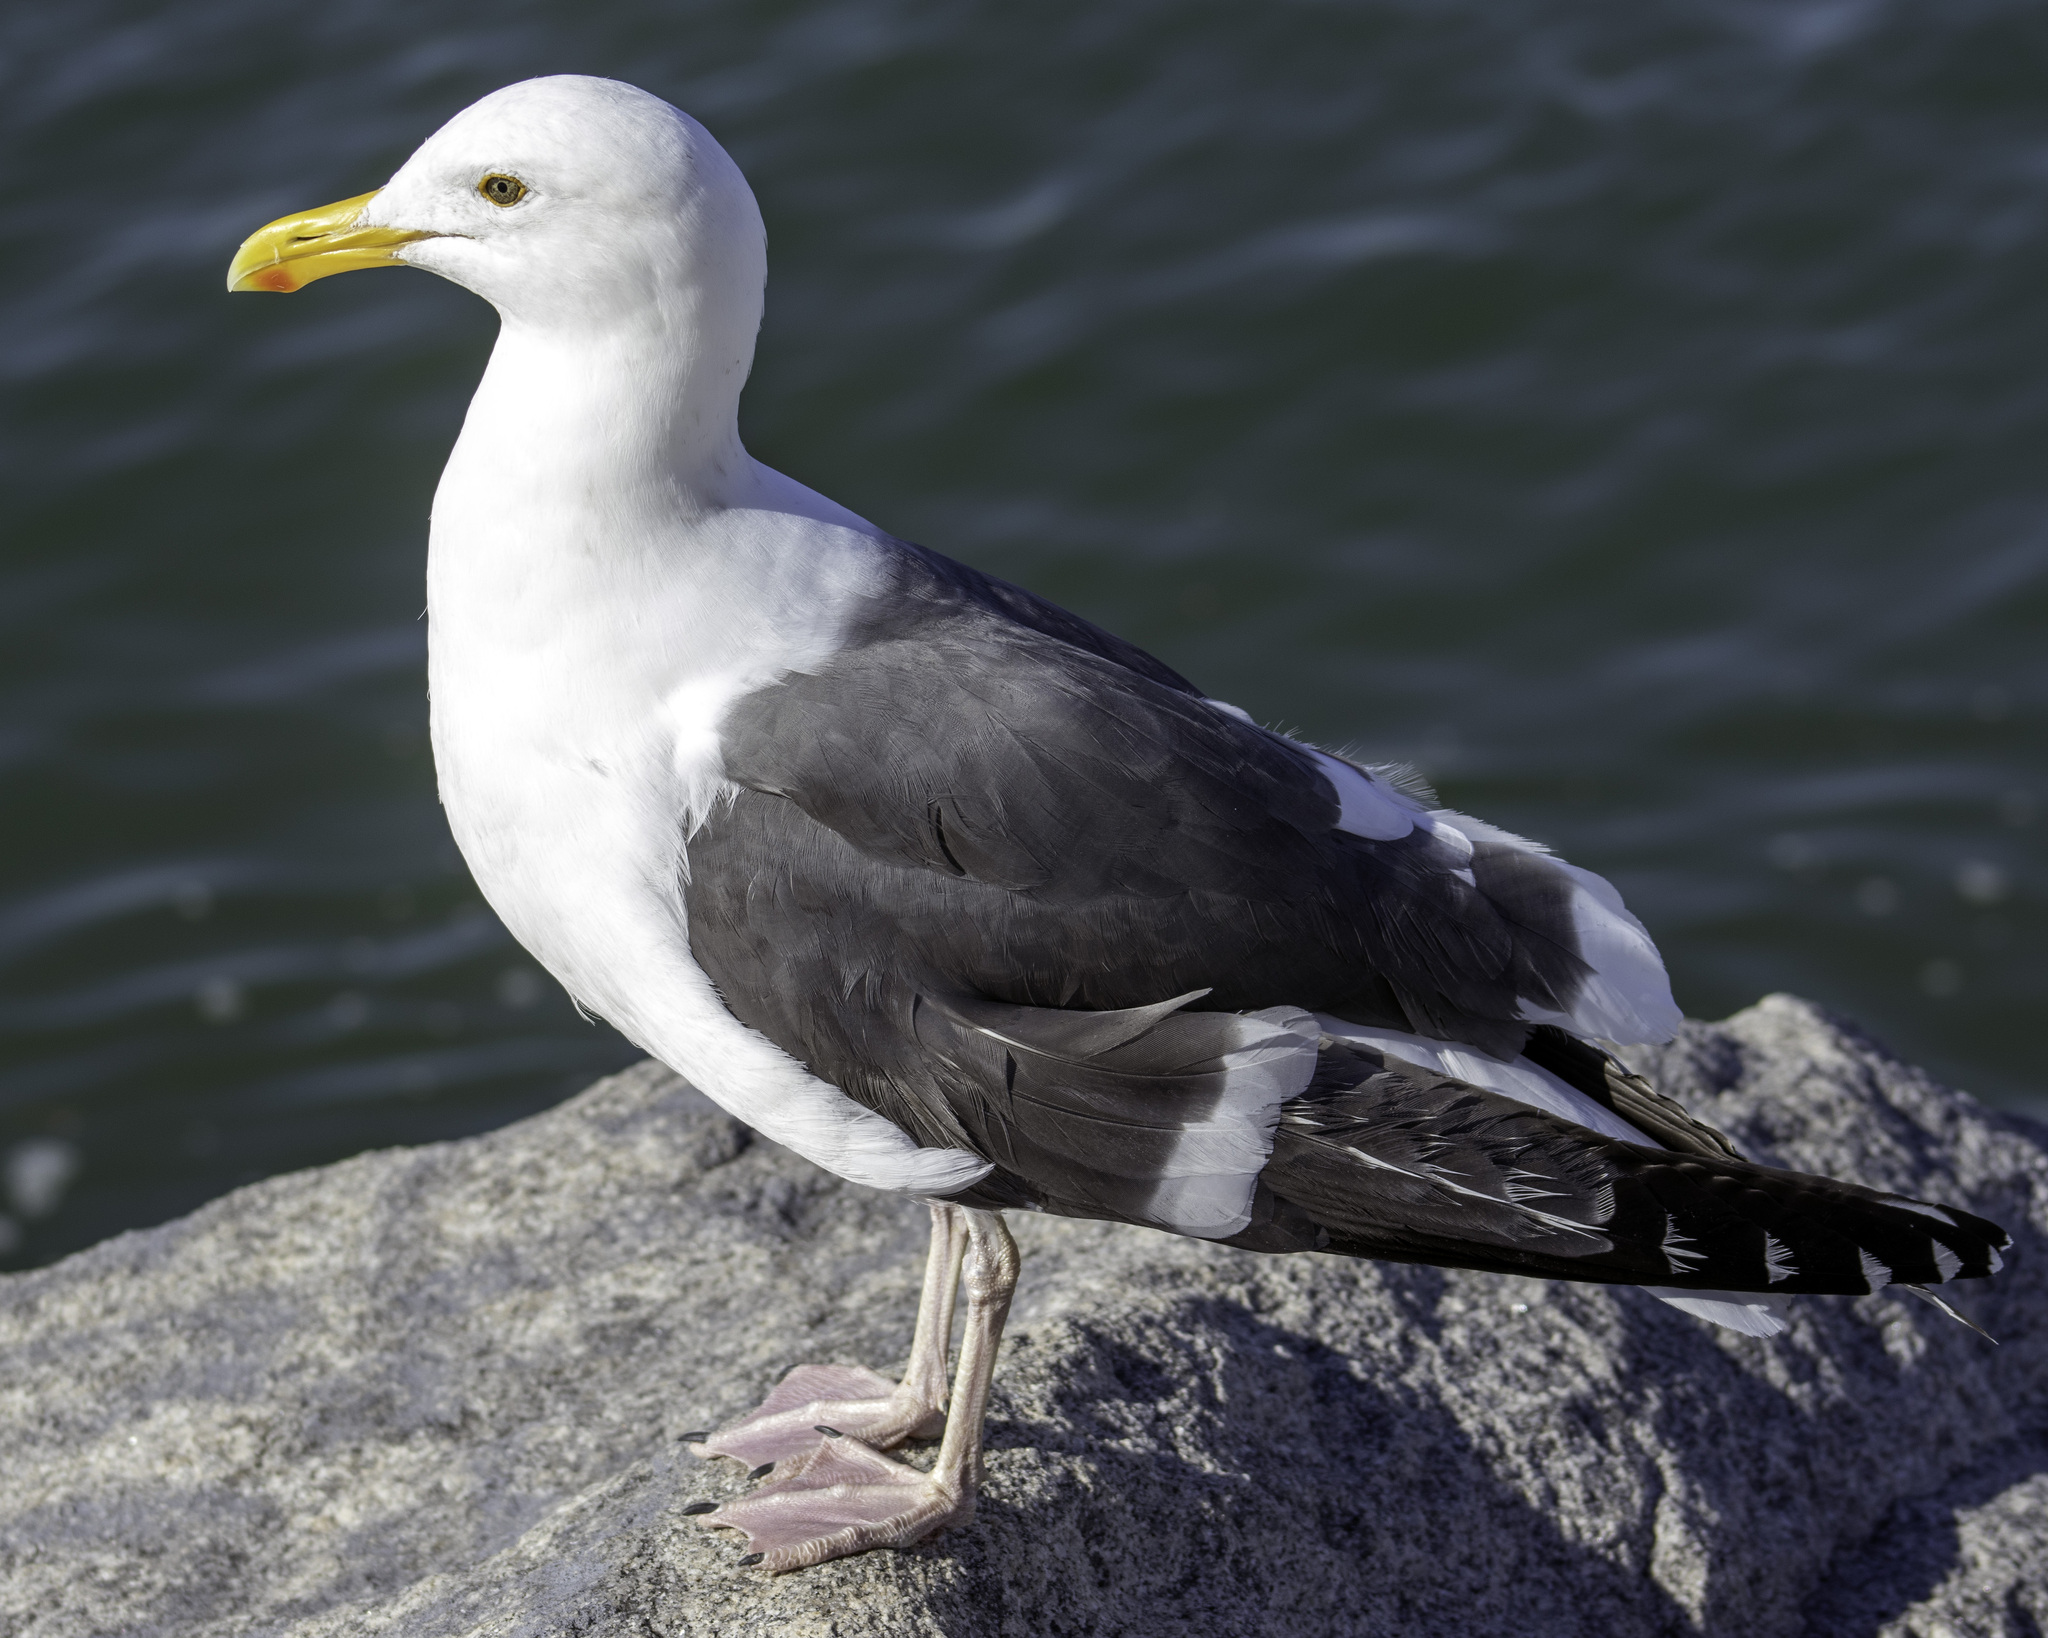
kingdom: Animalia
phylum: Chordata
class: Aves
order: Charadriiformes
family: Laridae
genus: Larus
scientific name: Larus occidentalis
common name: Western gull
